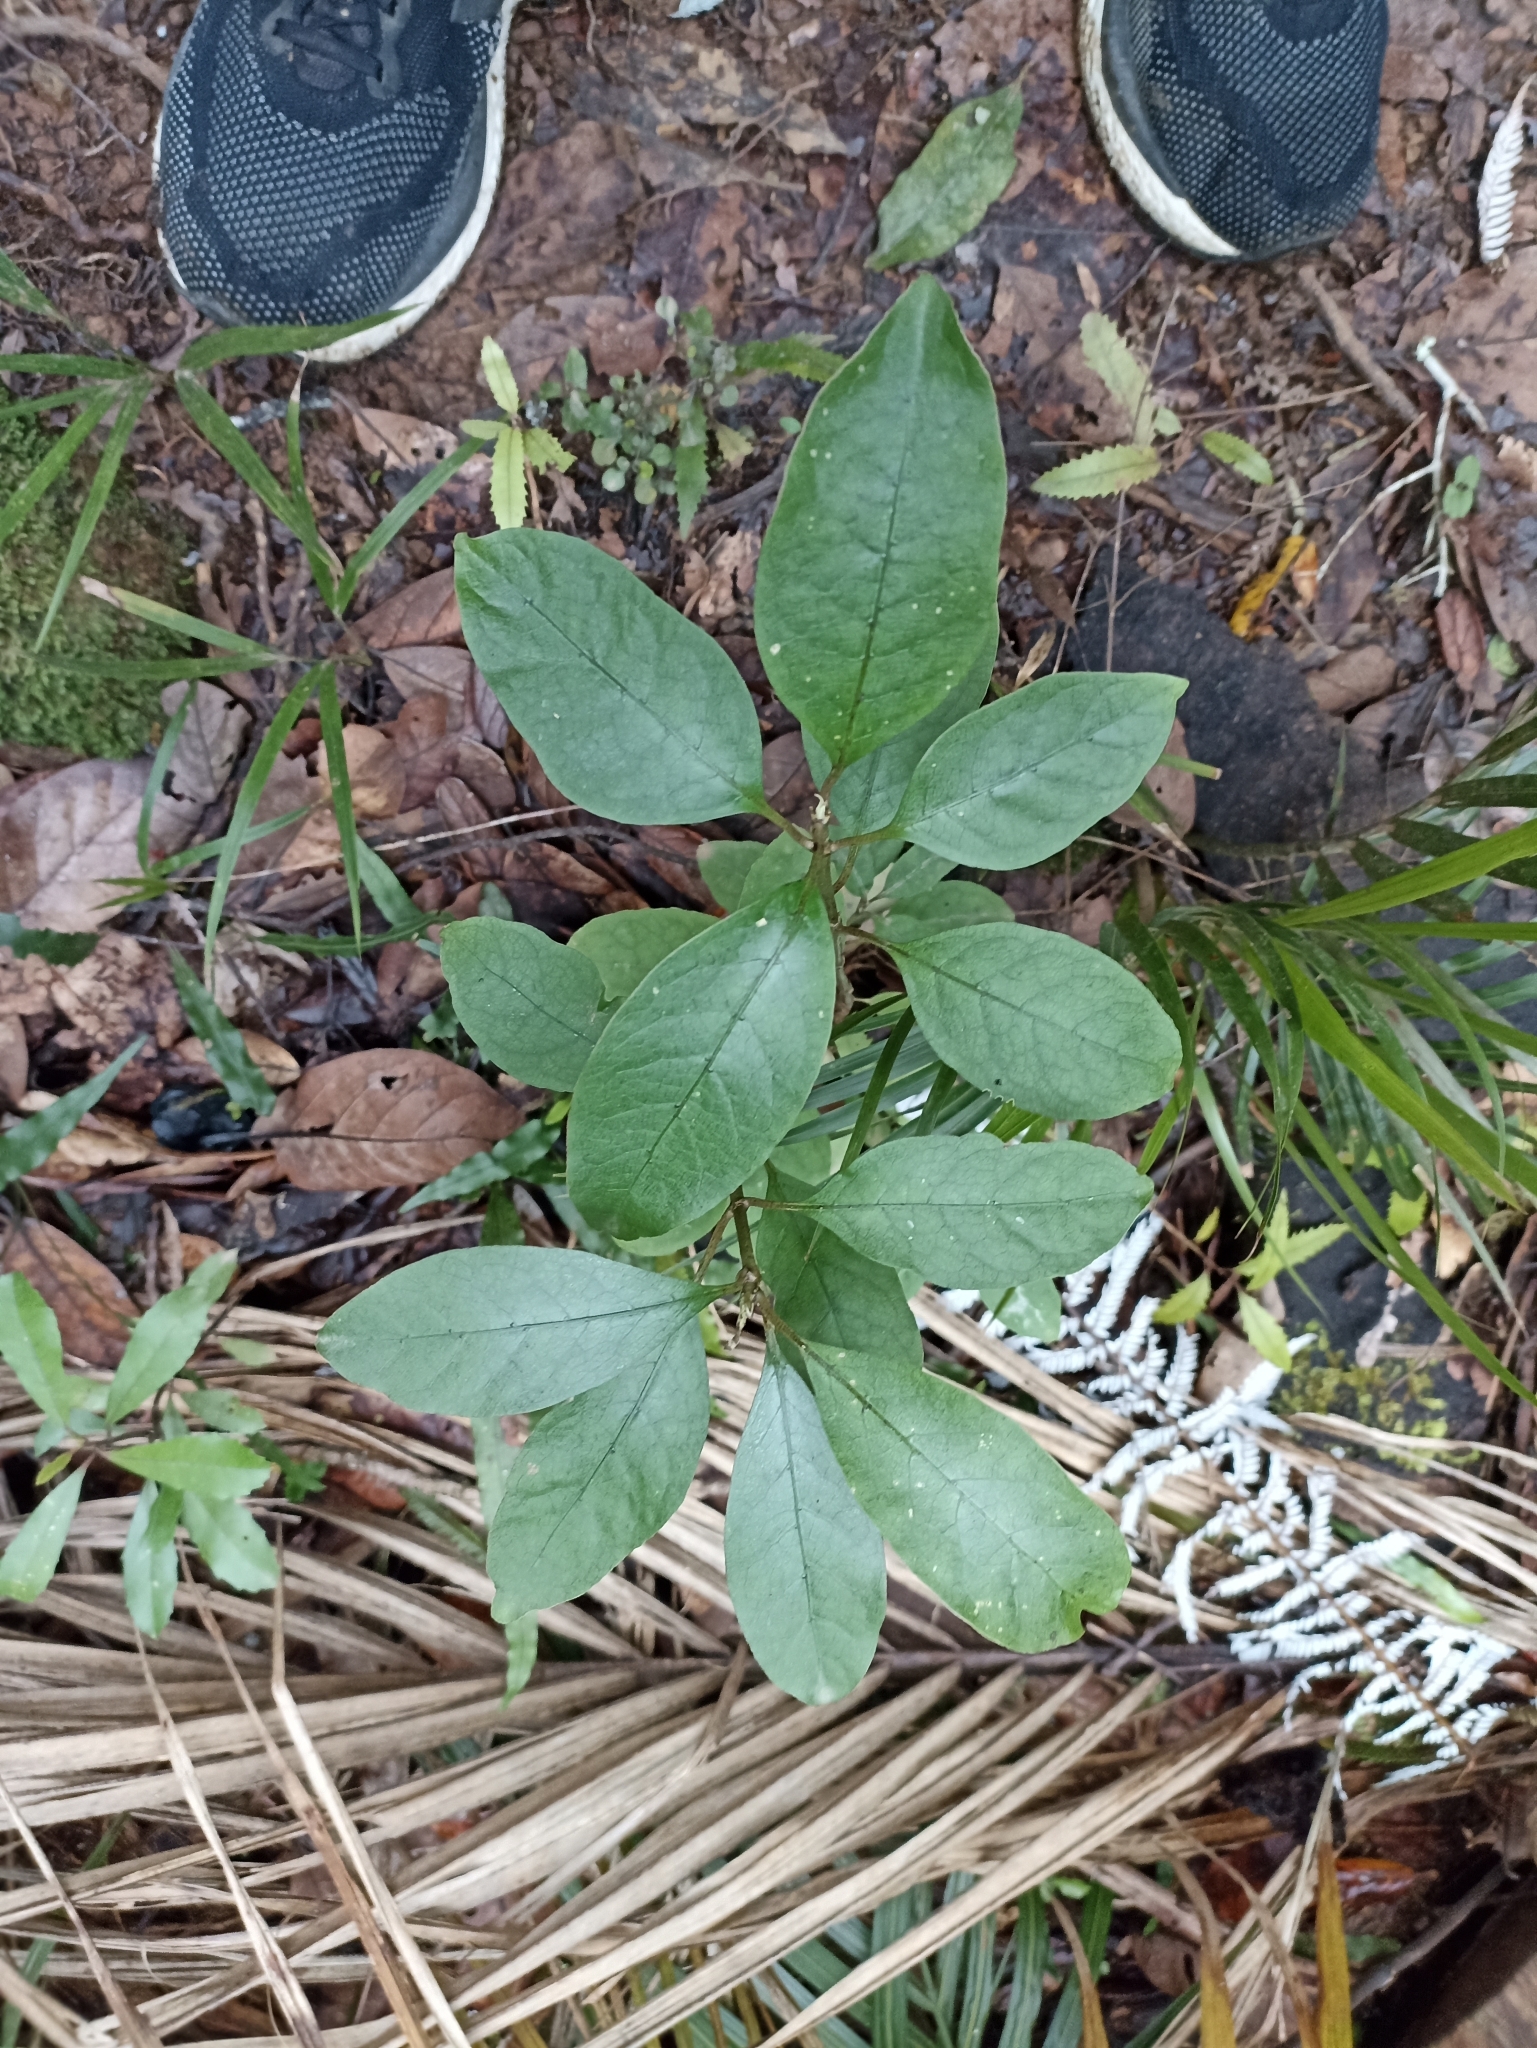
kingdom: Plantae
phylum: Tracheophyta
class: Magnoliopsida
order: Gentianales
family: Rubiaceae
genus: Coprosma
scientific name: Coprosma autumnalis
